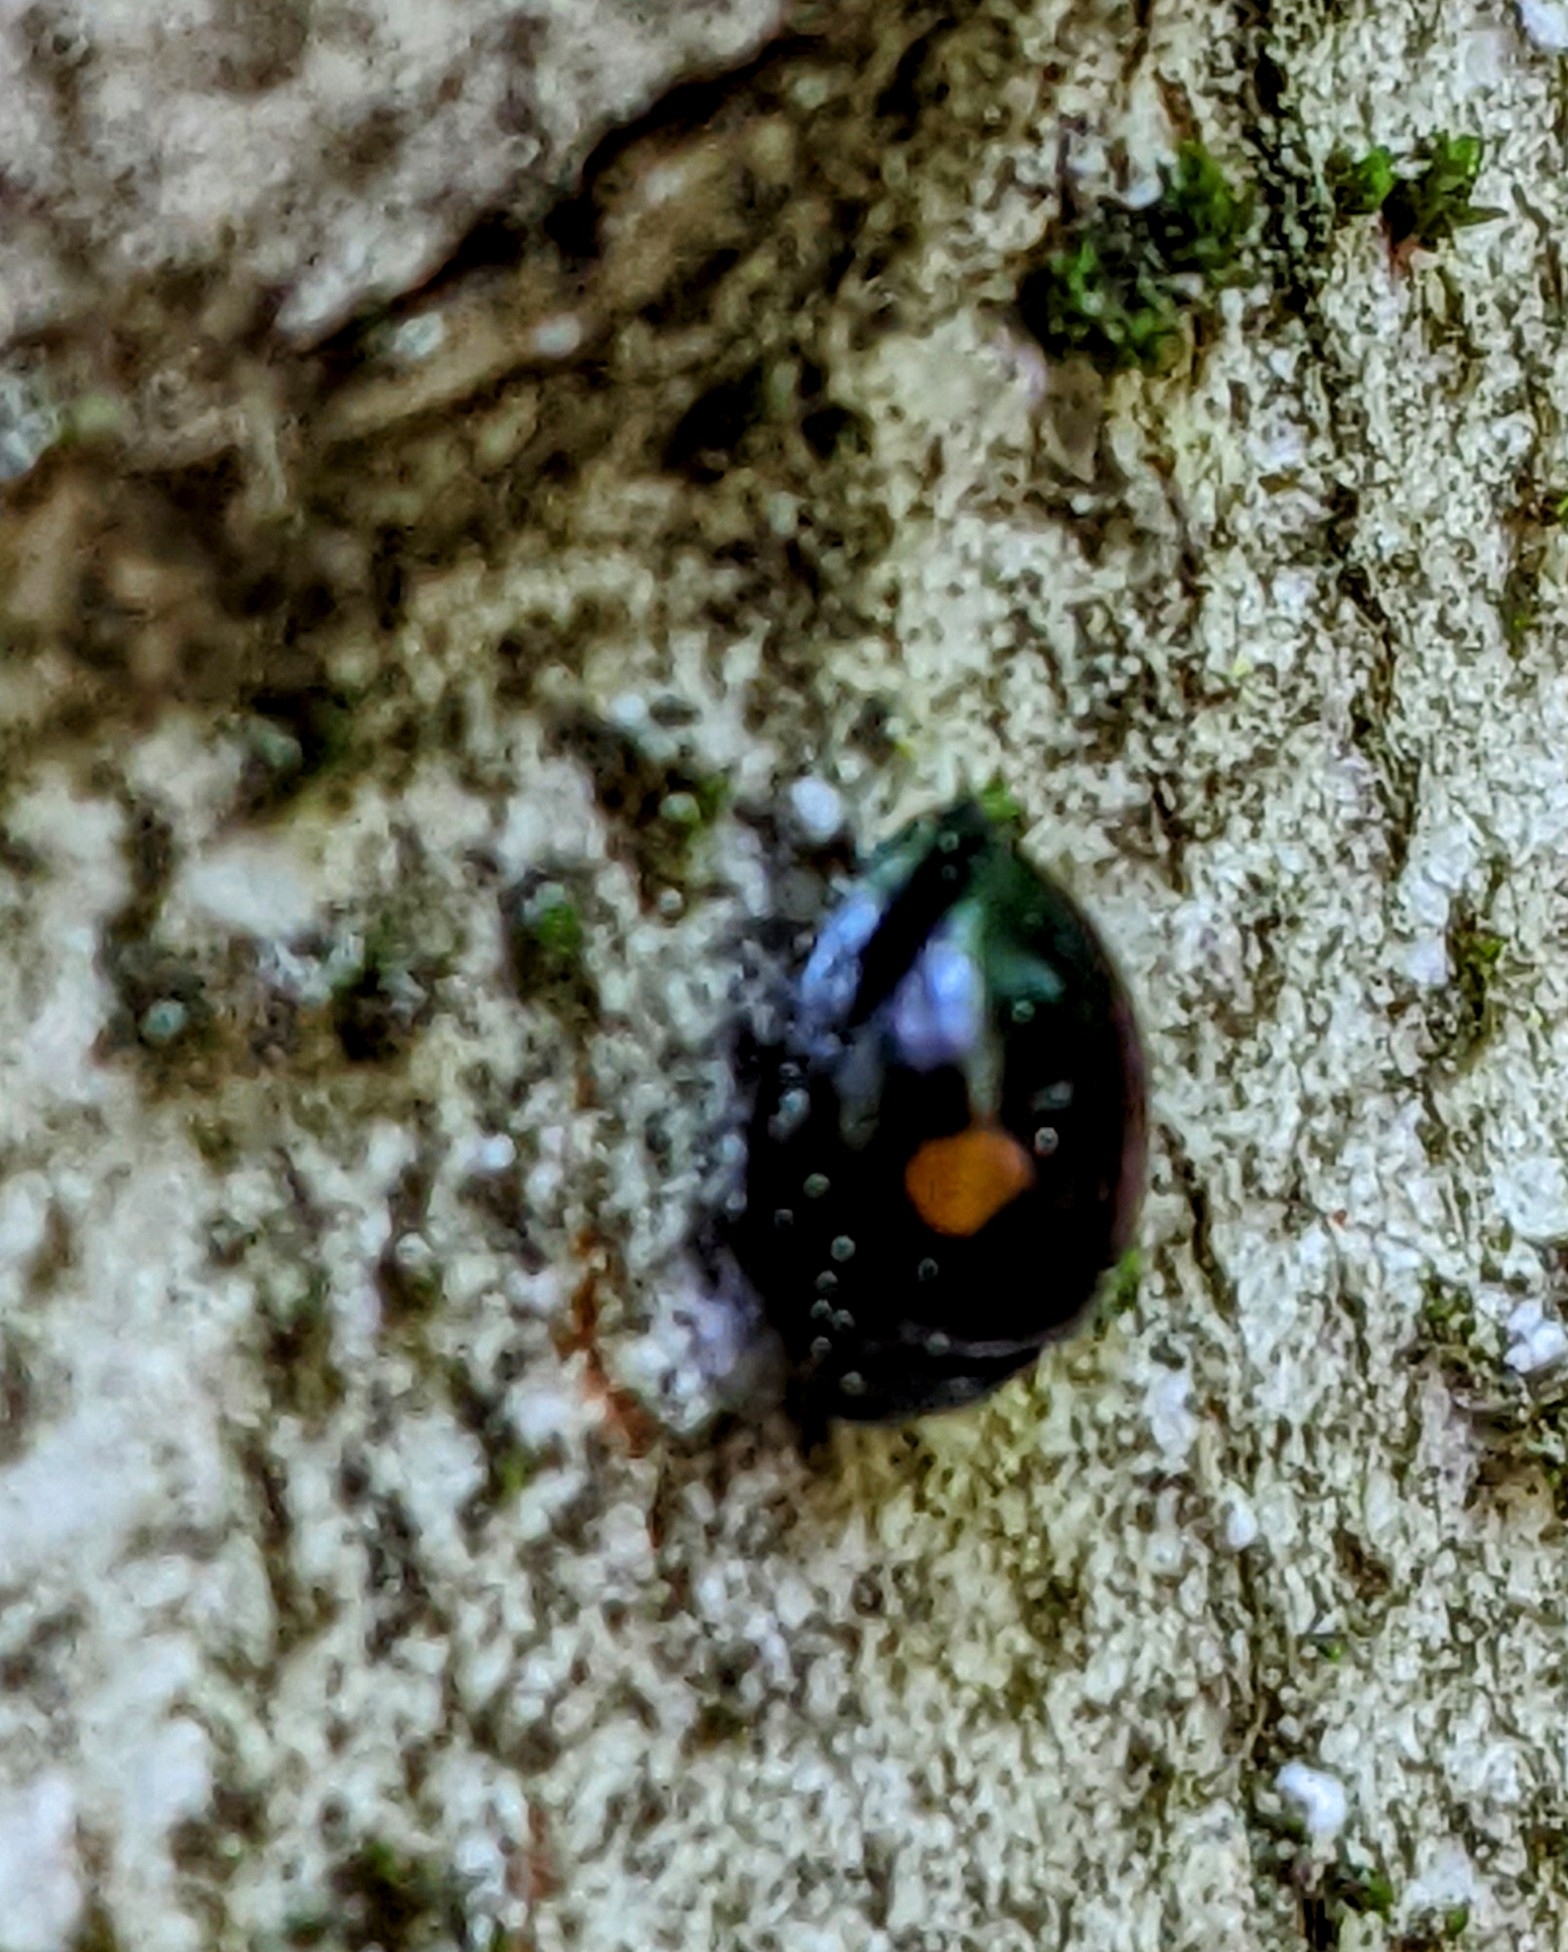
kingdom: Animalia
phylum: Arthropoda
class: Insecta
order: Coleoptera
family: Coccinellidae
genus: Chilocorus
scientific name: Chilocorus stigma
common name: Twicestabbed lady beetle
